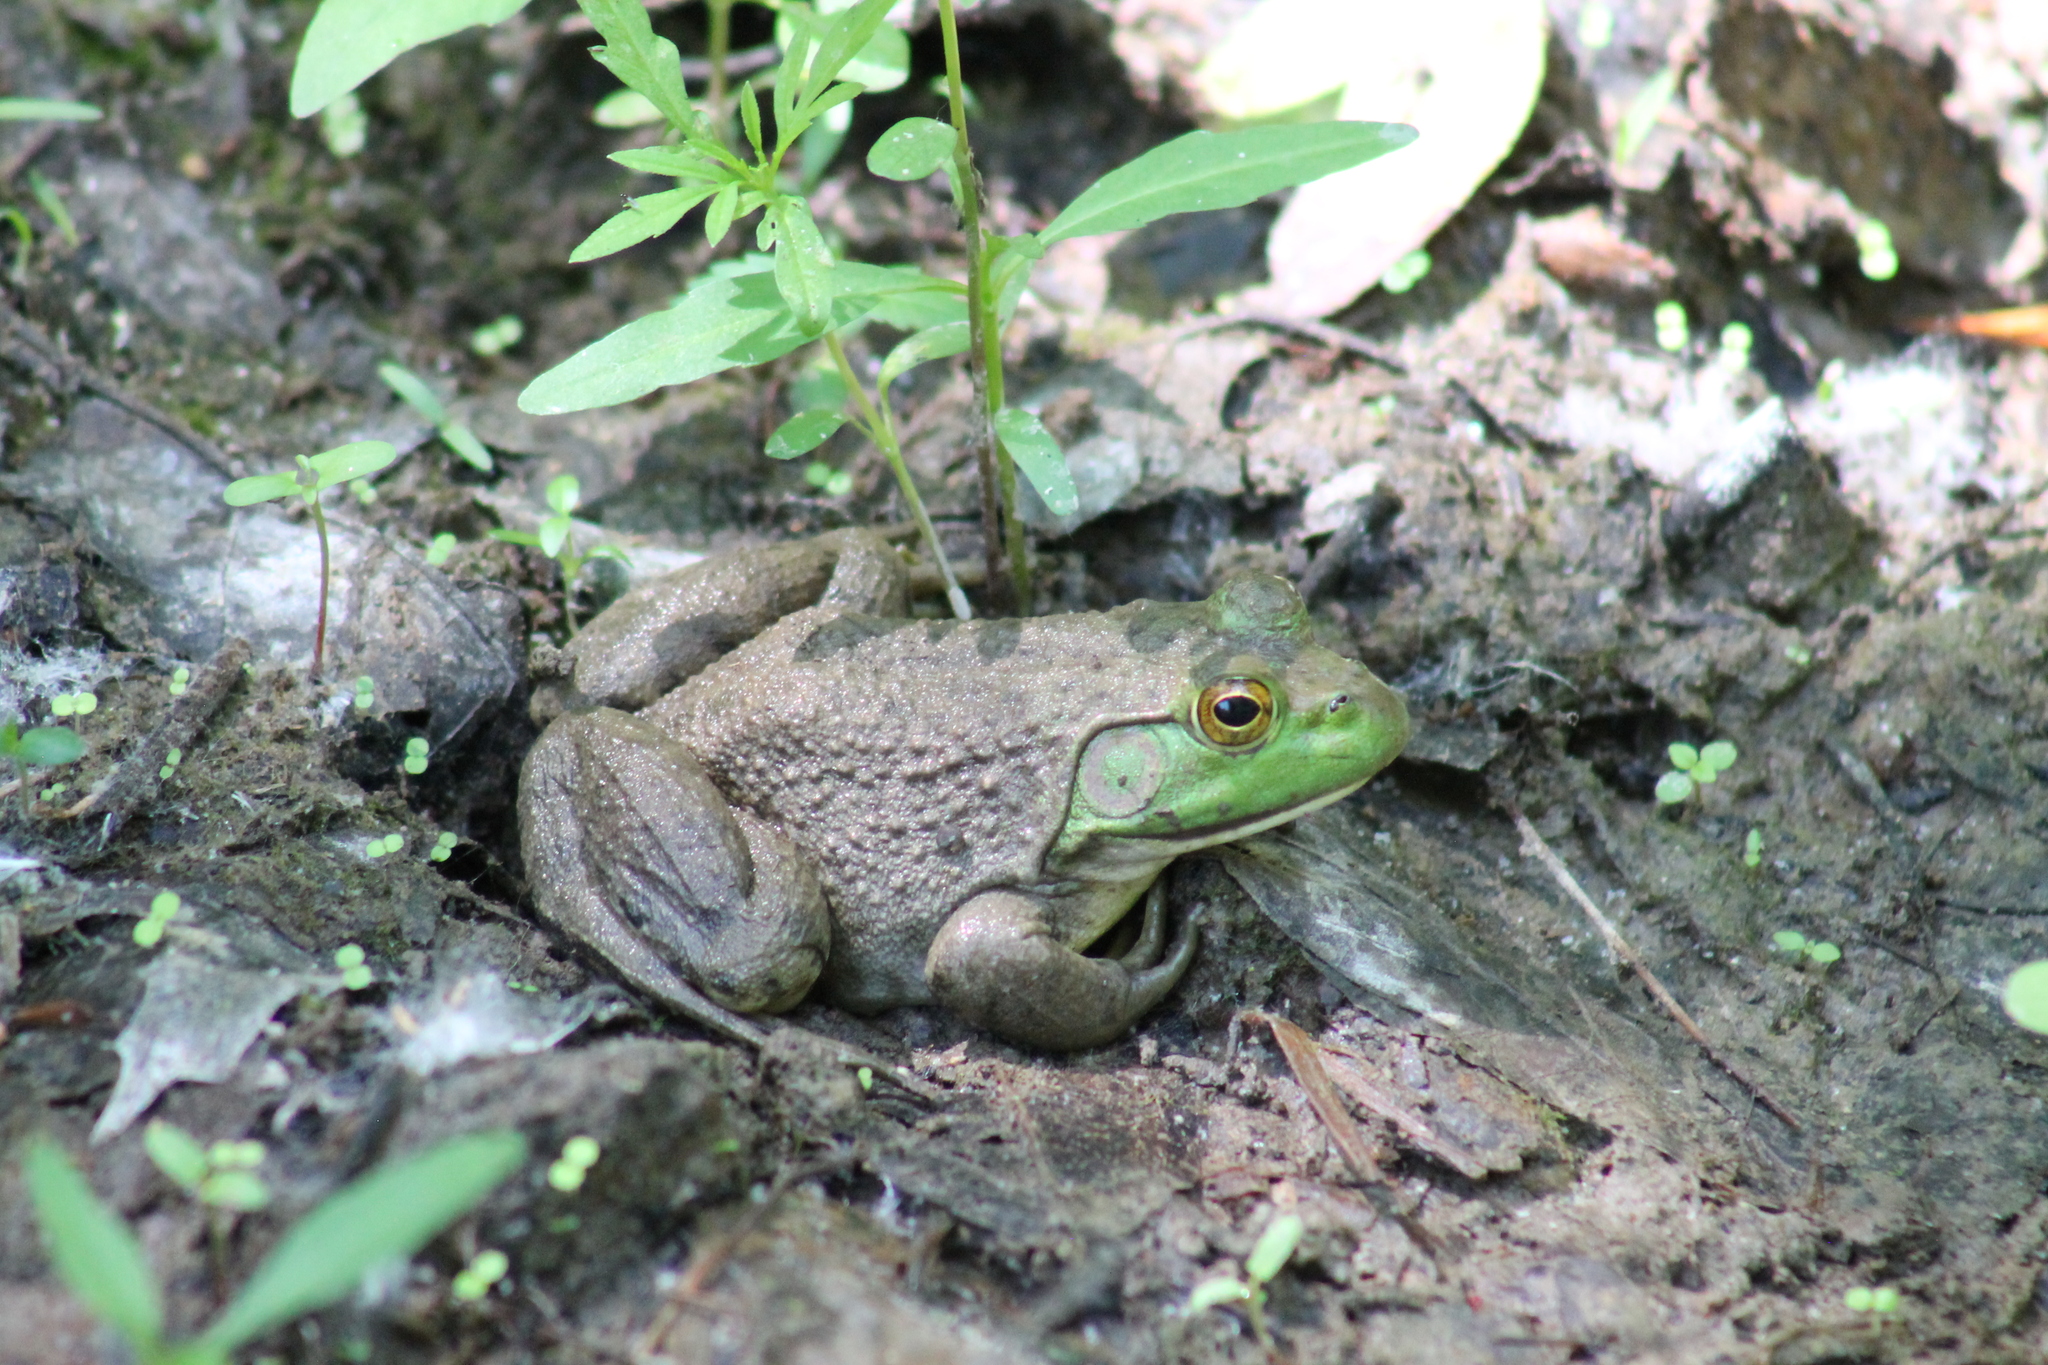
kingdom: Animalia
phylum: Chordata
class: Amphibia
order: Anura
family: Ranidae
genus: Lithobates
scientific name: Lithobates catesbeianus
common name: American bullfrog
